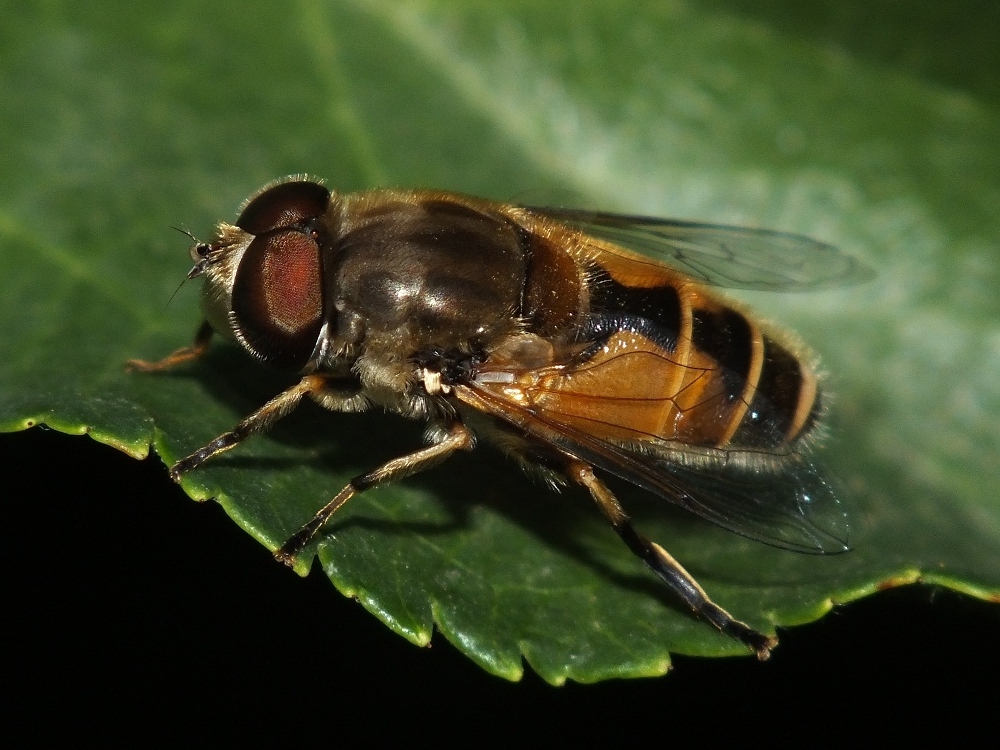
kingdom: Animalia
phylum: Arthropoda
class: Insecta
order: Diptera
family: Syrphidae
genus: Eristalis
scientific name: Eristalis arbustorum
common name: Hover fly
